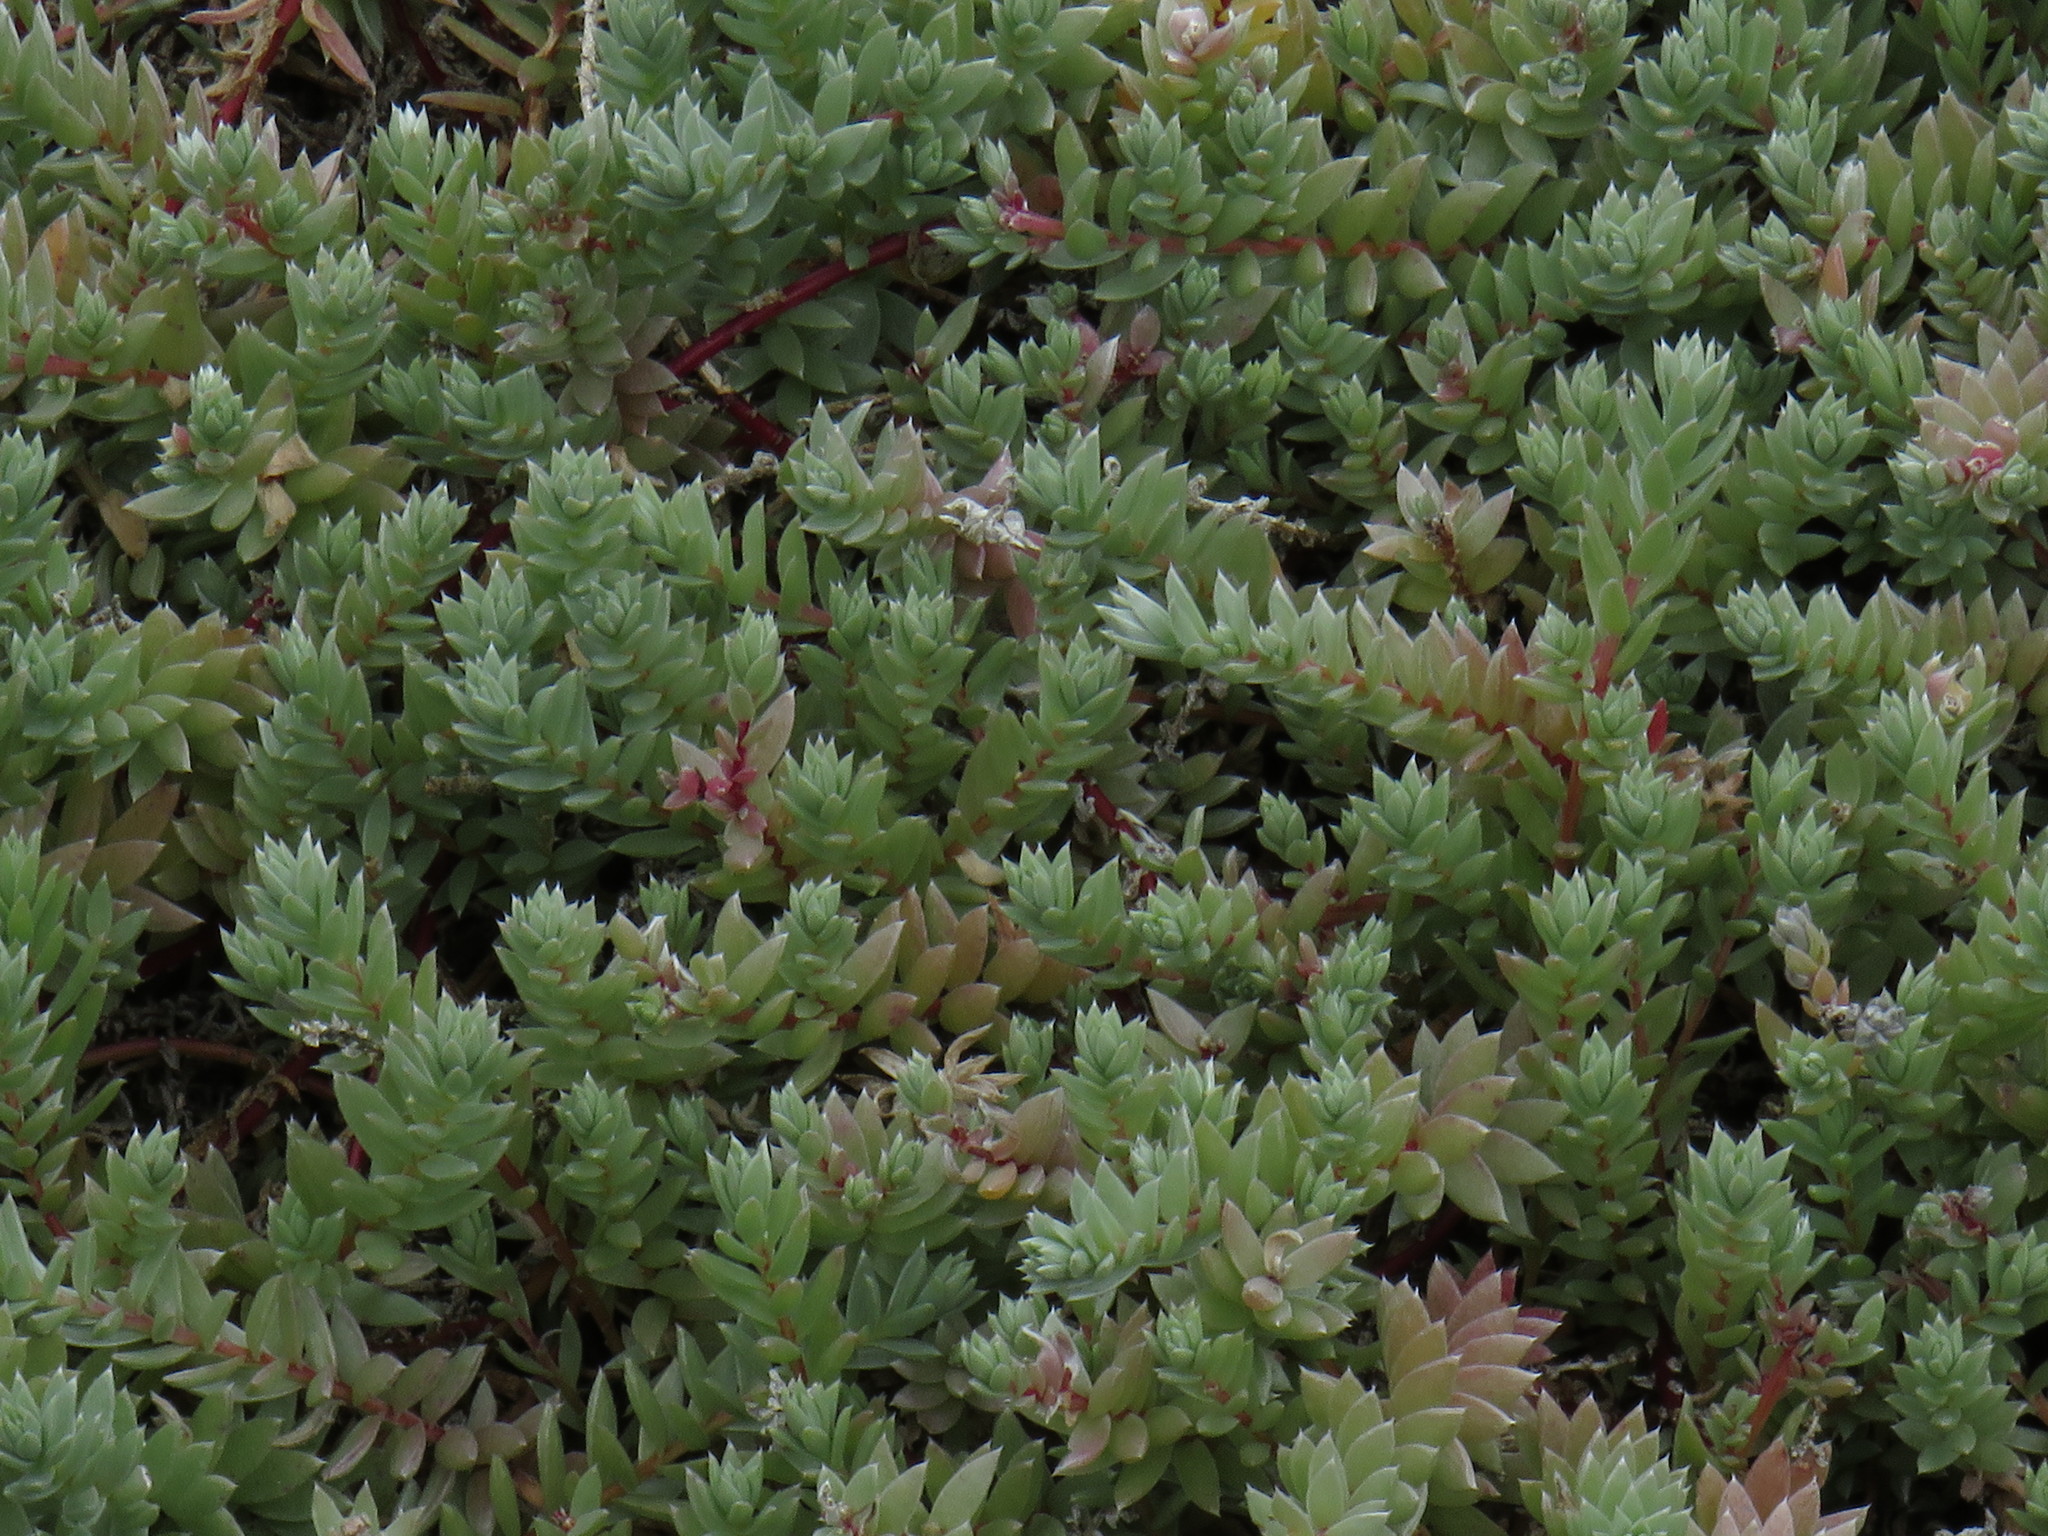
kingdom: Plantae
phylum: Tracheophyta
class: Magnoliopsida
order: Caryophyllales
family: Amaranthaceae
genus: Chenolea
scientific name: Chenolea diffusa
